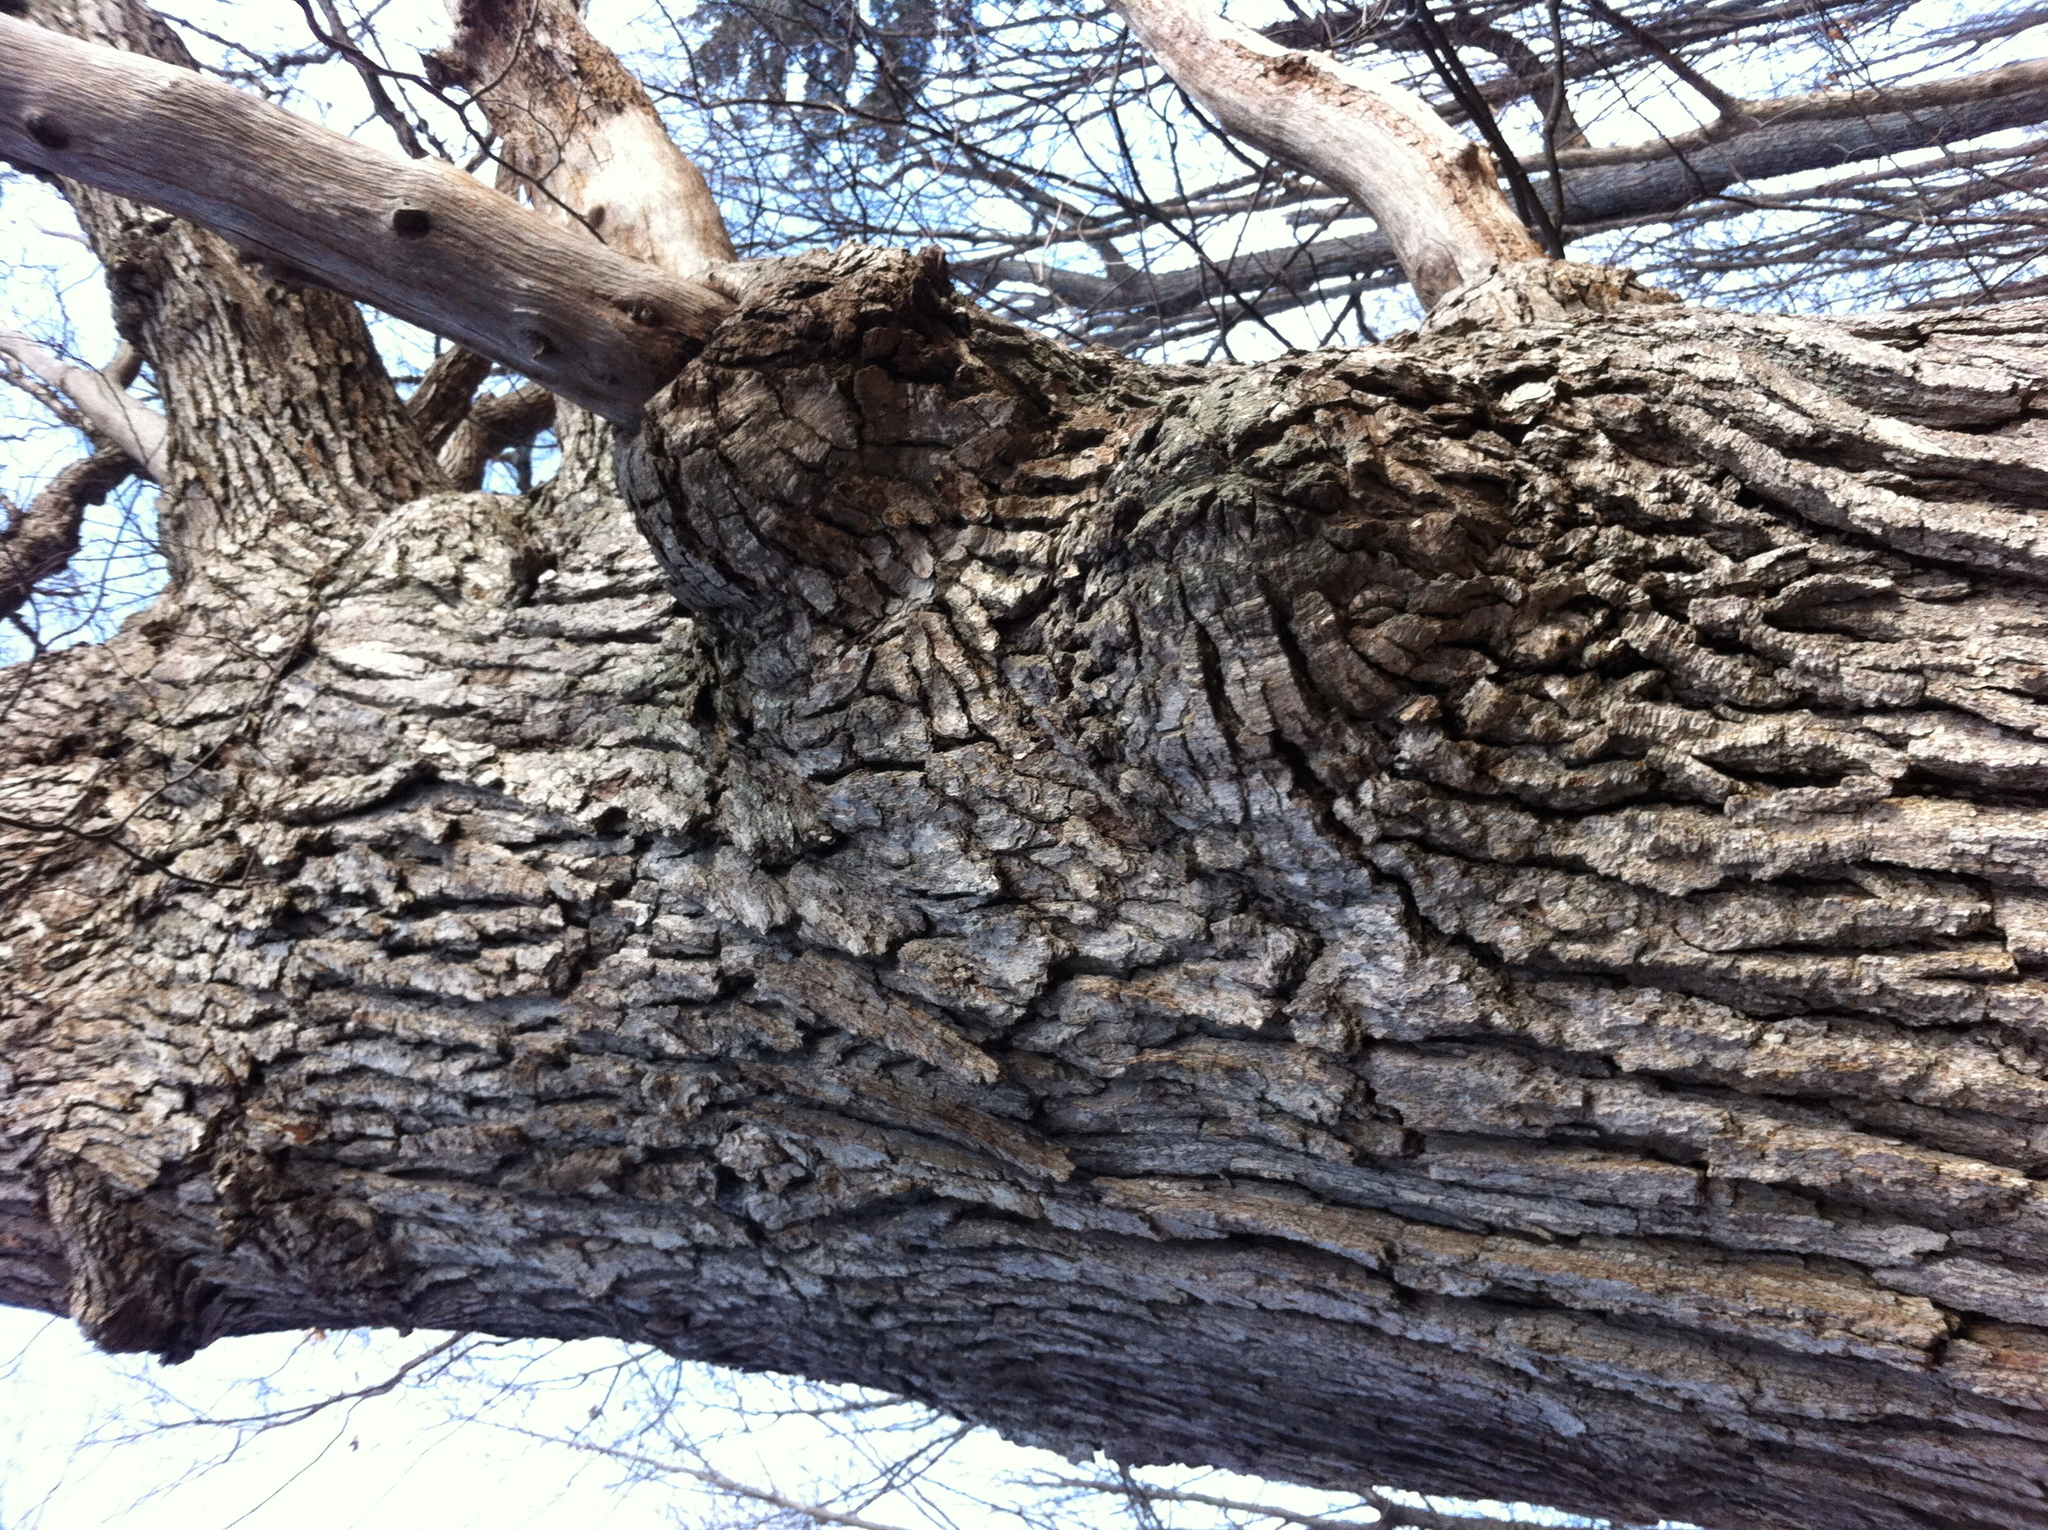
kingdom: Plantae
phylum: Tracheophyta
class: Magnoliopsida
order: Fagales
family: Fagaceae
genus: Quercus
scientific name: Quercus alba
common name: White oak
